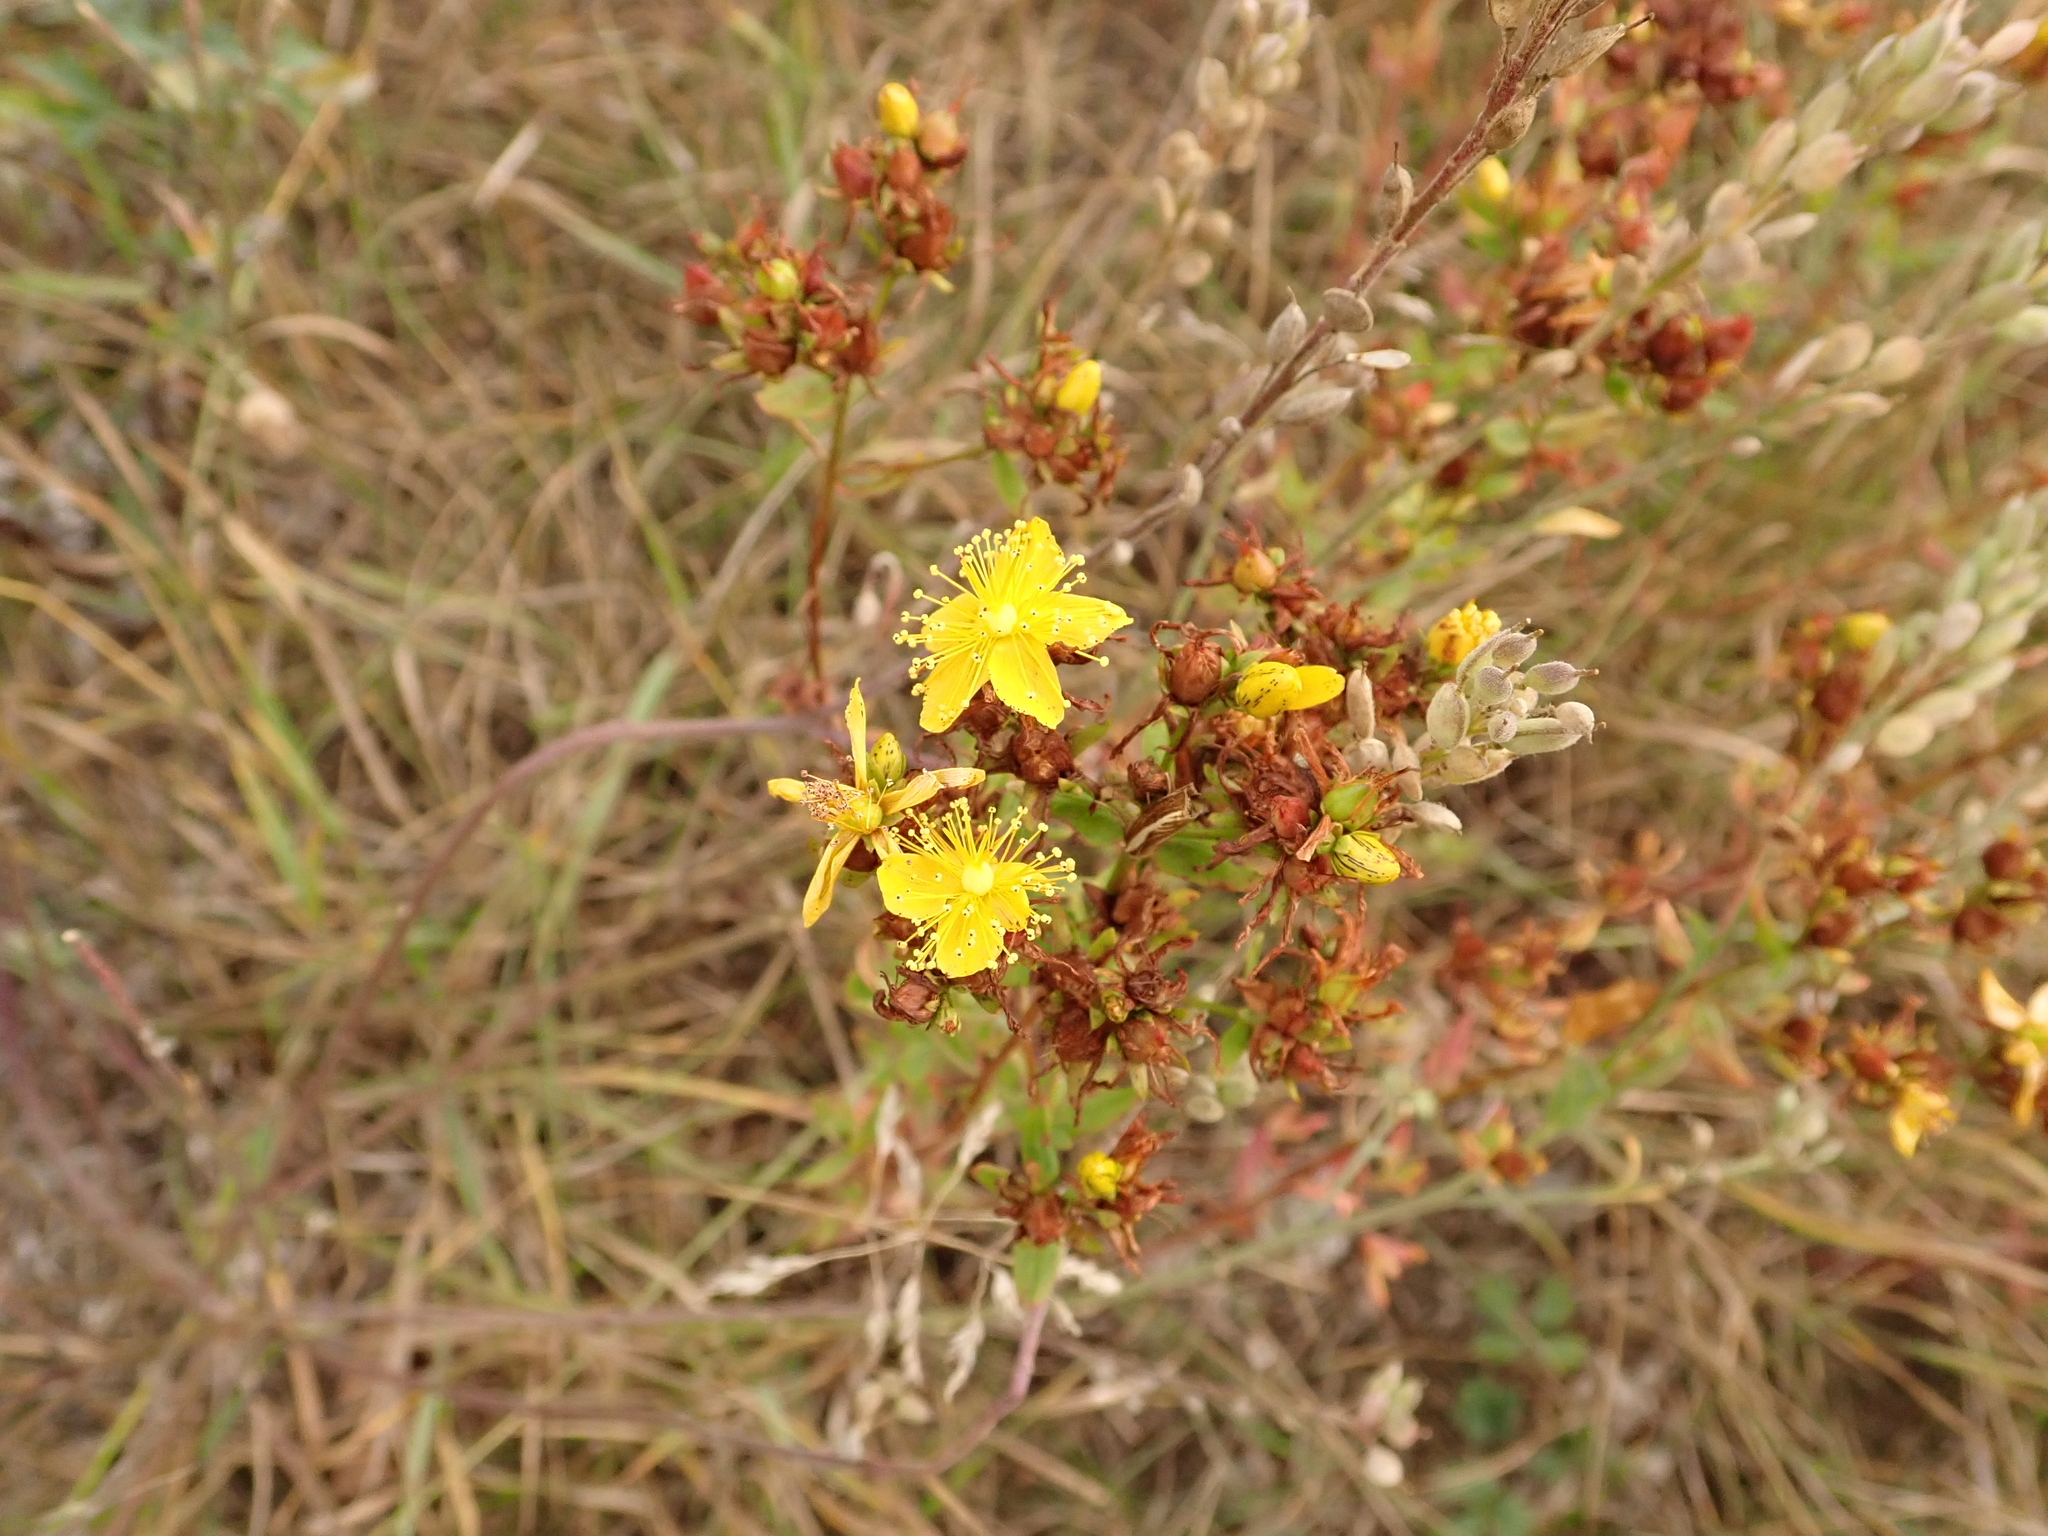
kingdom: Plantae
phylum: Tracheophyta
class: Magnoliopsida
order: Malpighiales
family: Hypericaceae
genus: Hypericum
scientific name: Hypericum perforatum
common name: Common st. johnswort
